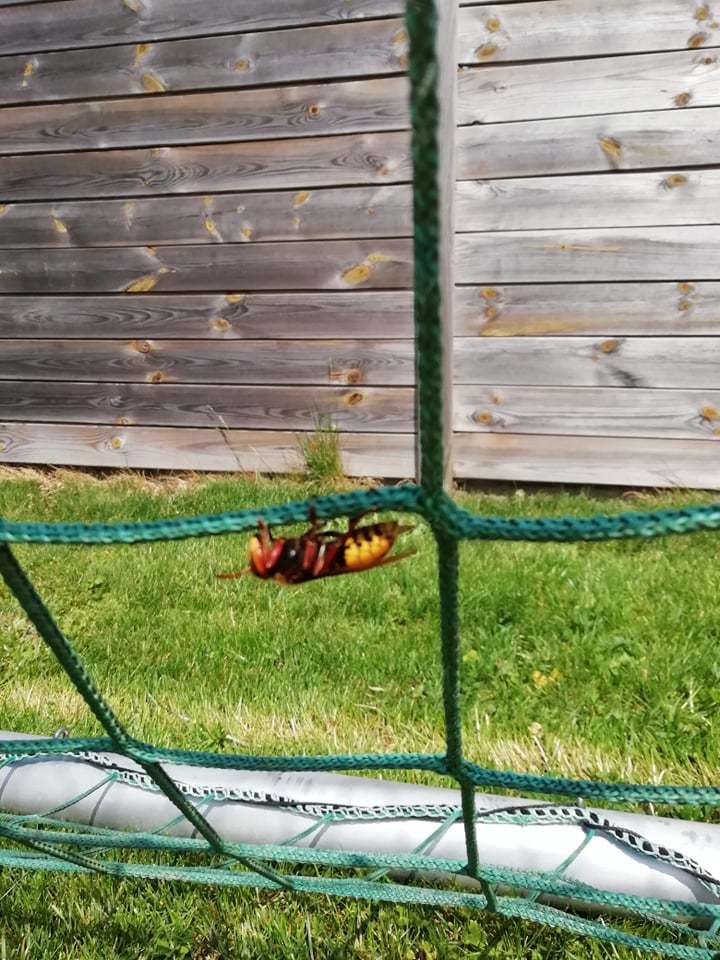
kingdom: Animalia
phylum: Arthropoda
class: Insecta
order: Hymenoptera
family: Vespidae
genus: Vespa
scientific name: Vespa crabro
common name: Hornet
